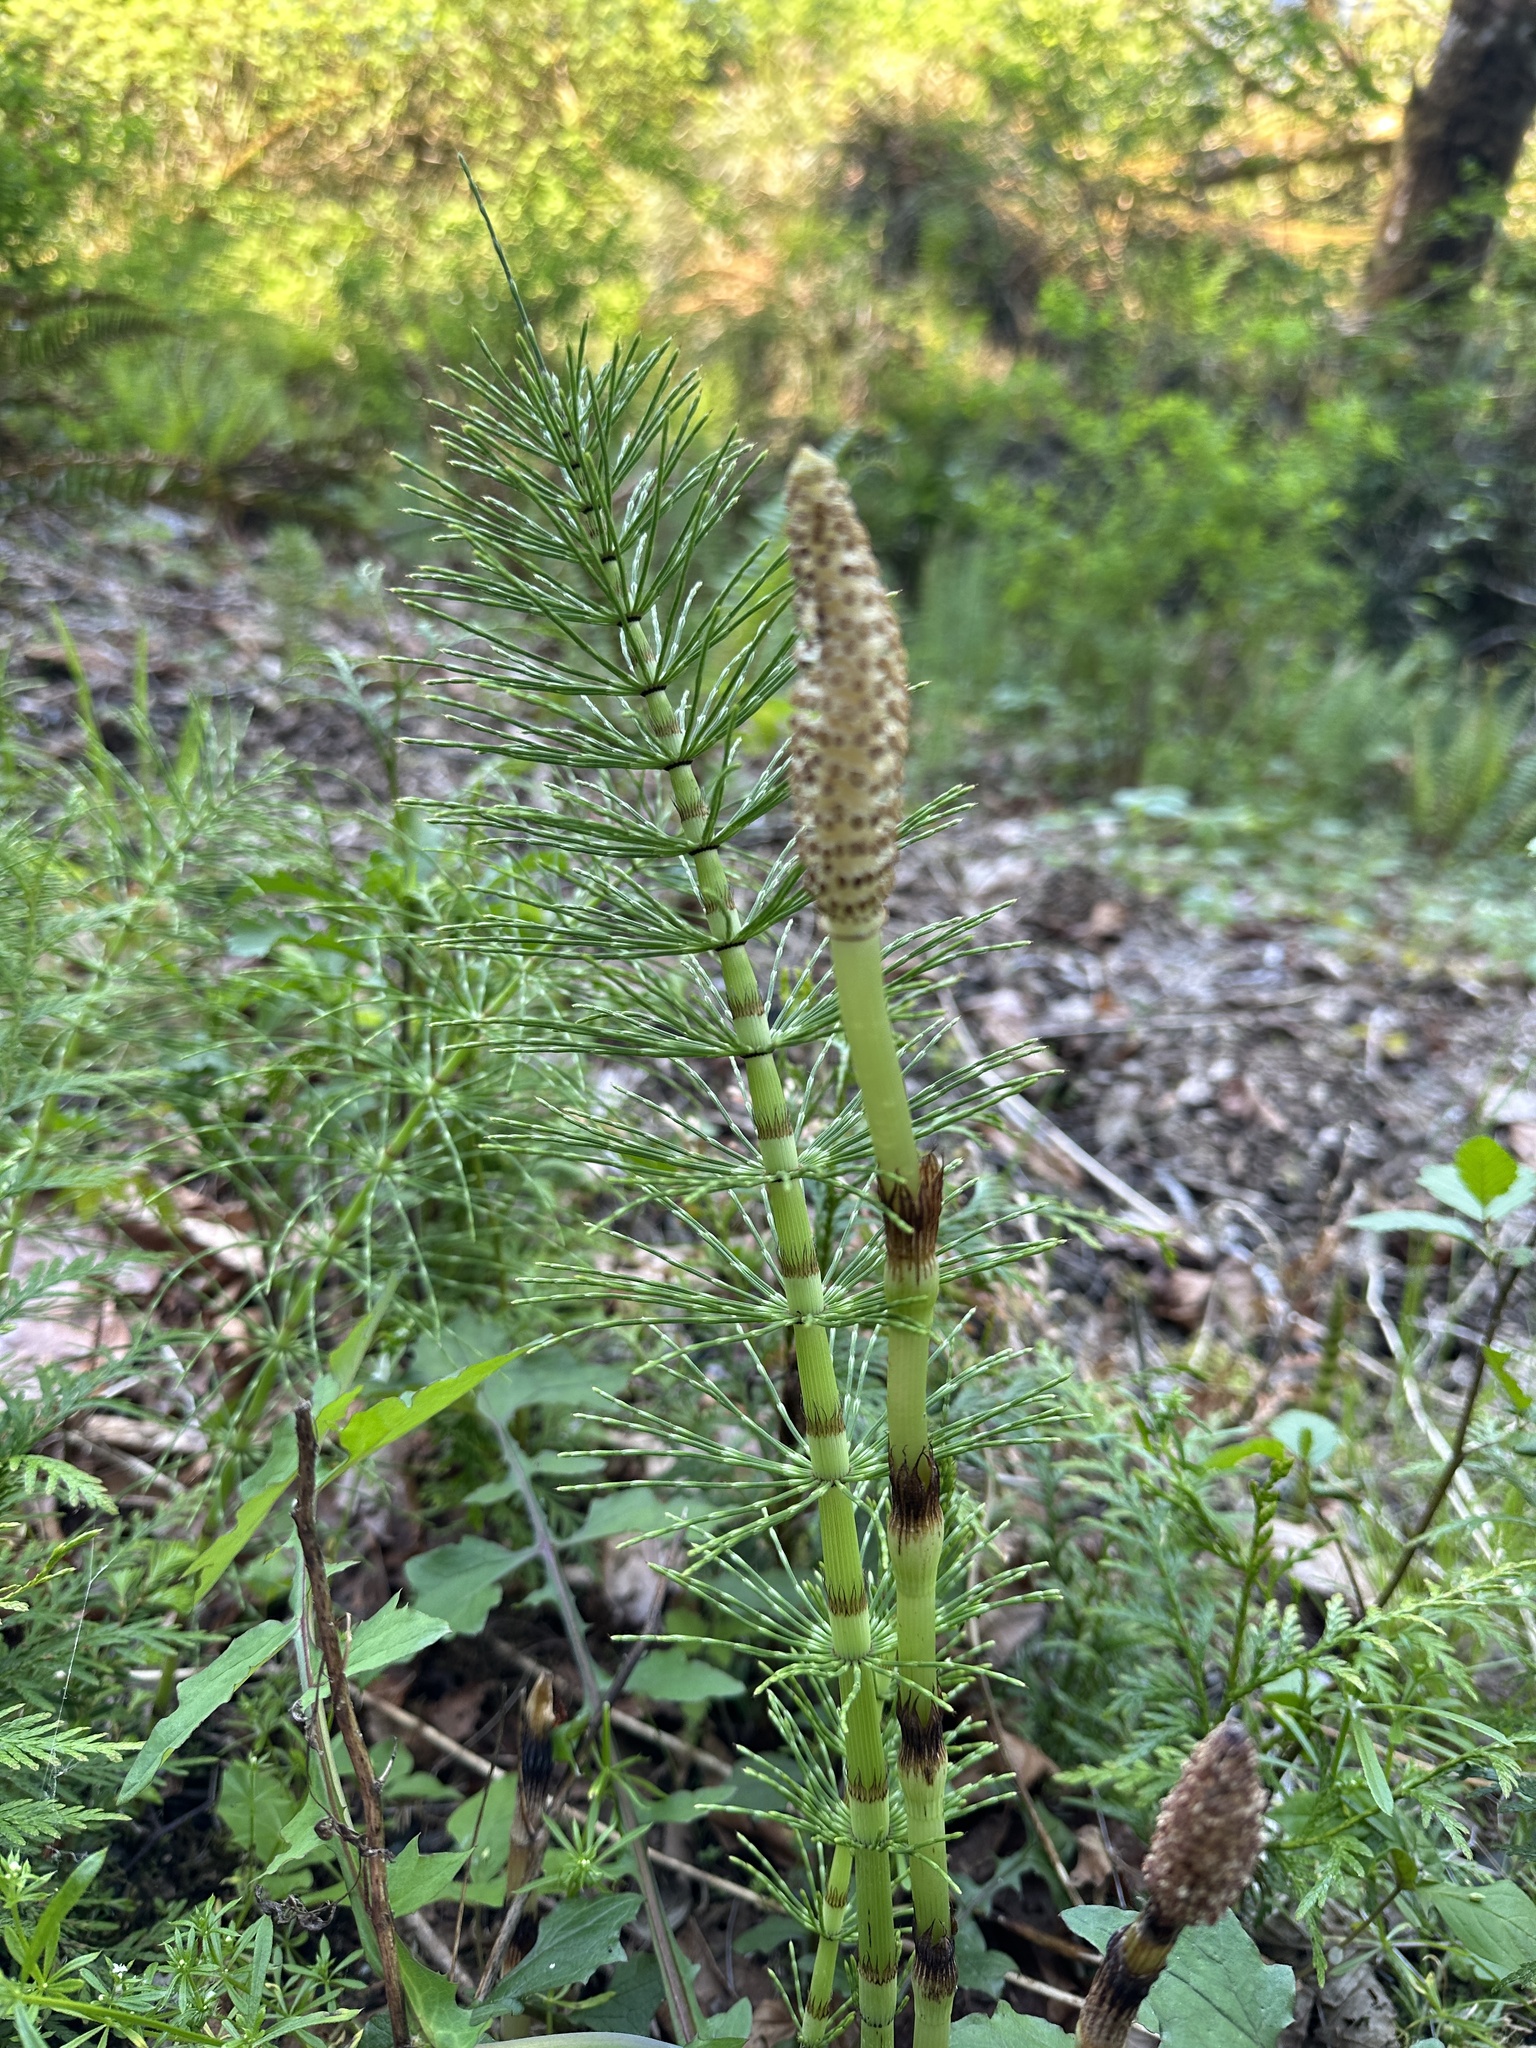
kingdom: Plantae
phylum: Tracheophyta
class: Polypodiopsida
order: Equisetales
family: Equisetaceae
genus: Equisetum
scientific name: Equisetum braunii
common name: Braun's horsetail
